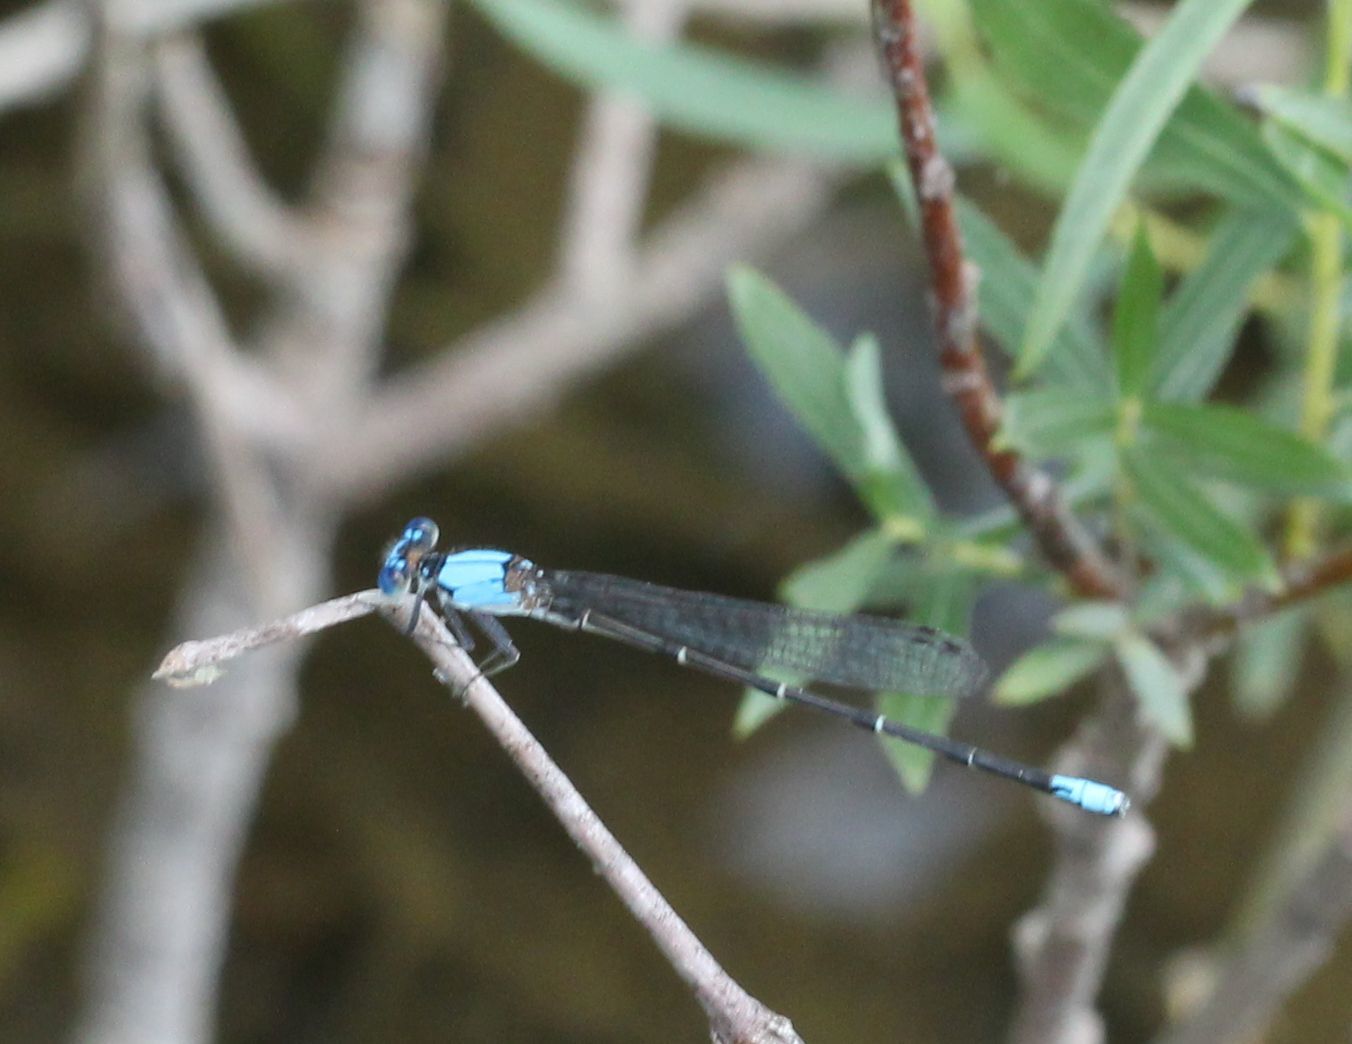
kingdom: Animalia
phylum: Arthropoda
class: Insecta
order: Odonata
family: Coenagrionidae
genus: Argia
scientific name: Argia apicalis
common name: Blue-fronted dancer
